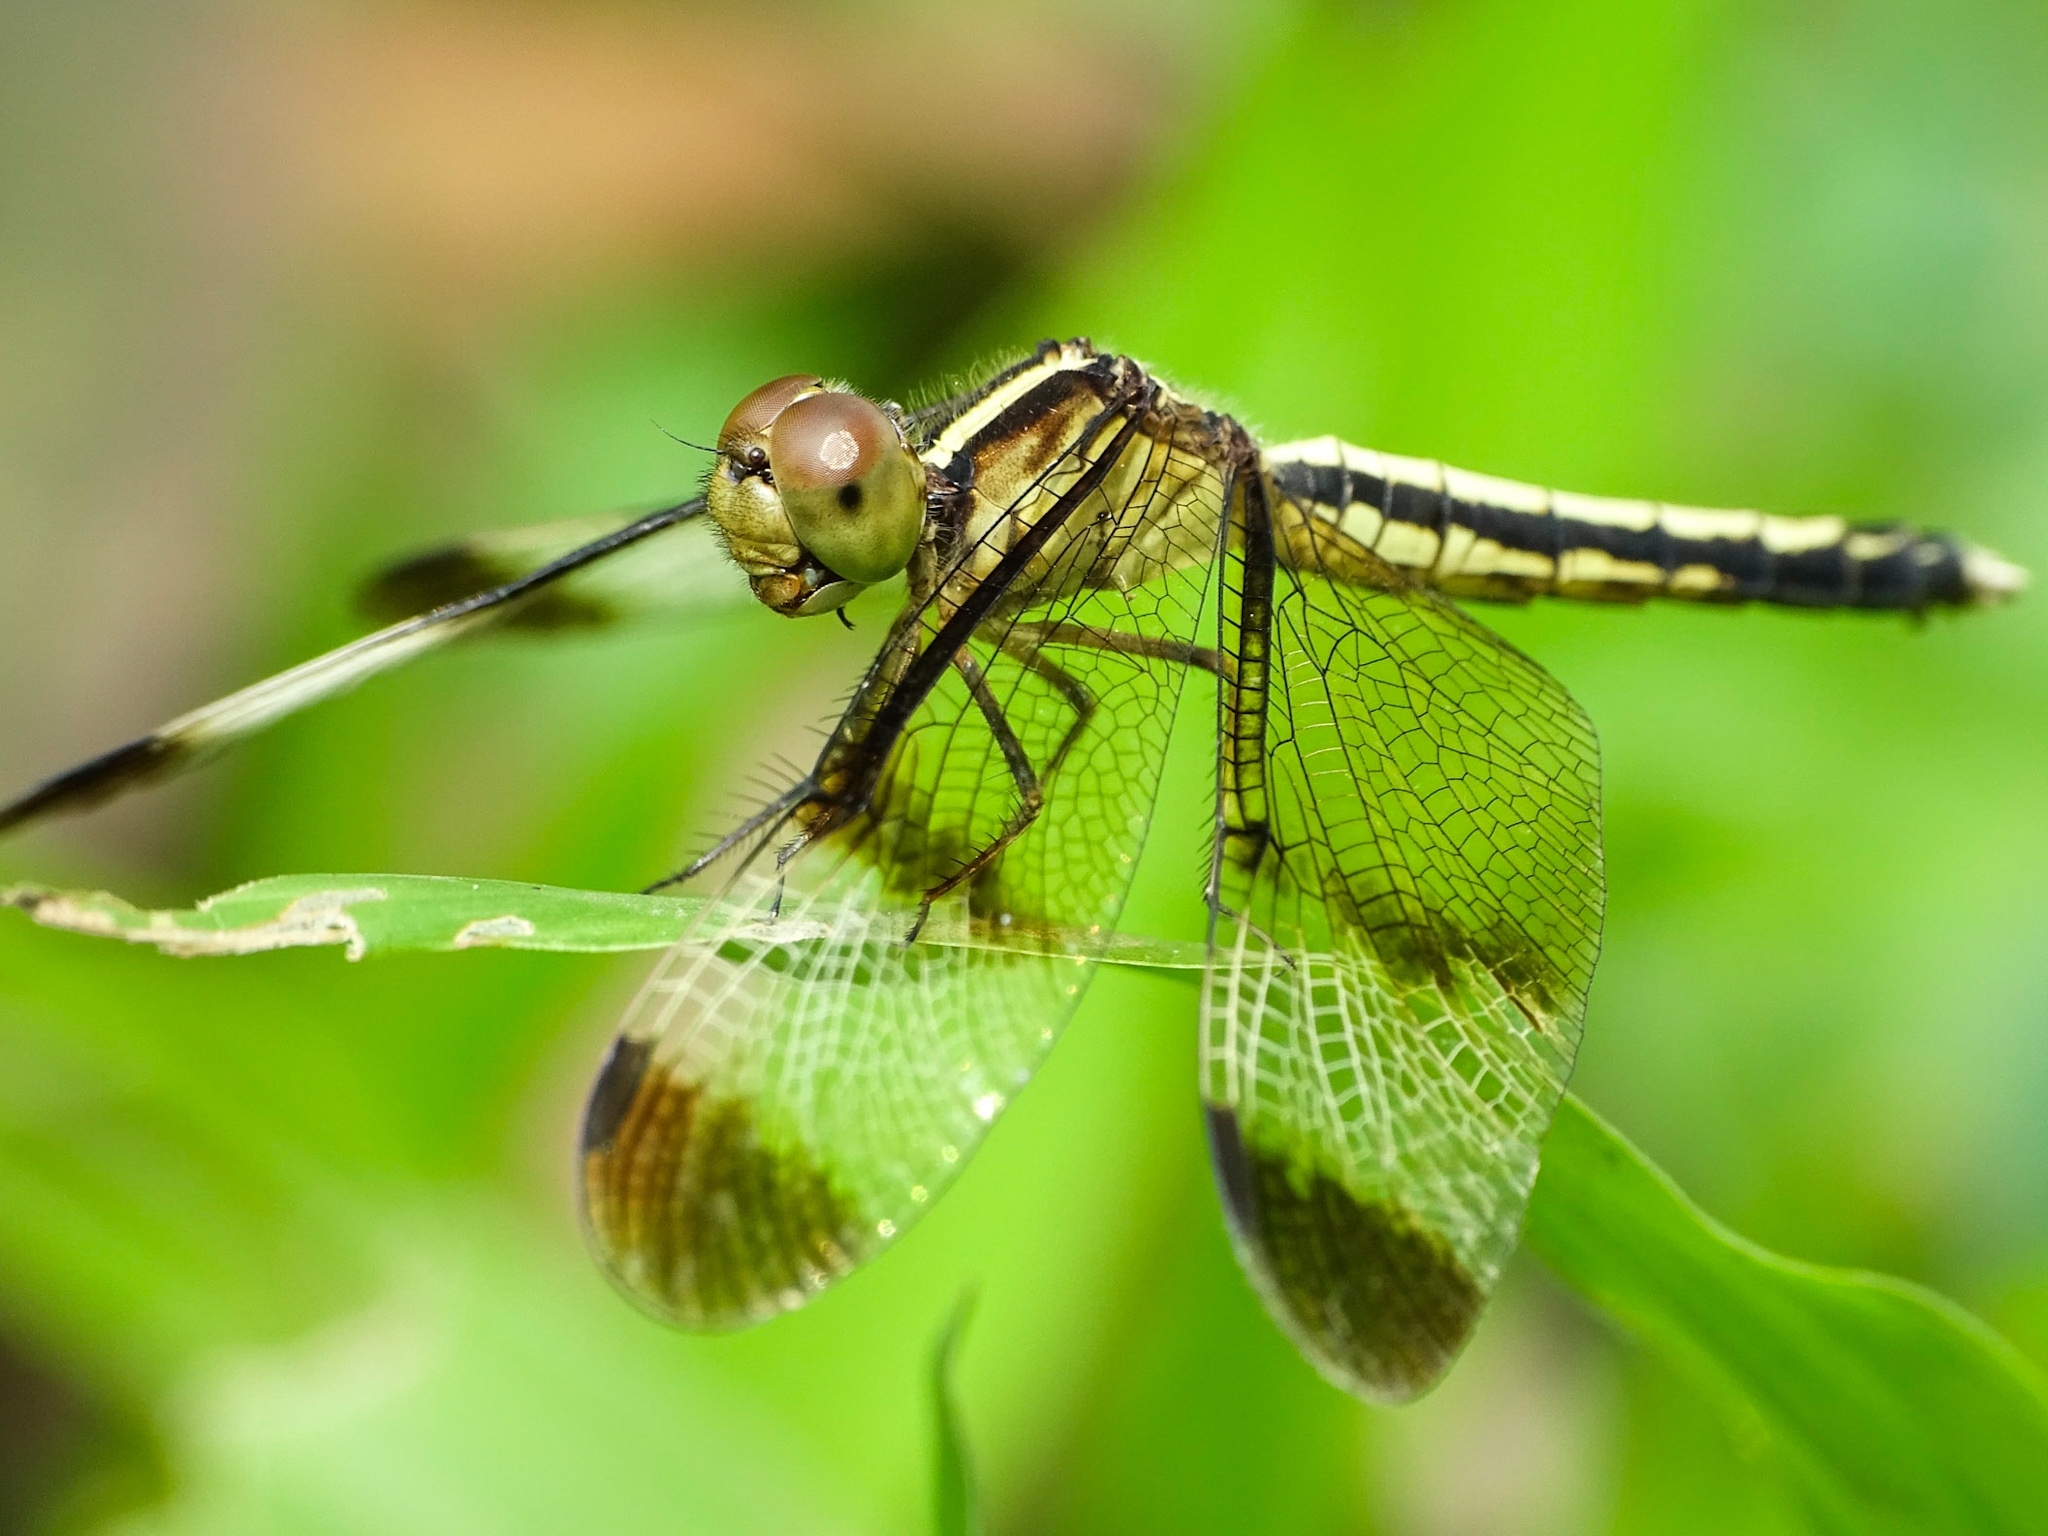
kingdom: Animalia
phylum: Arthropoda
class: Insecta
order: Odonata
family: Libellulidae
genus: Neurothemis
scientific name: Neurothemis tullia
